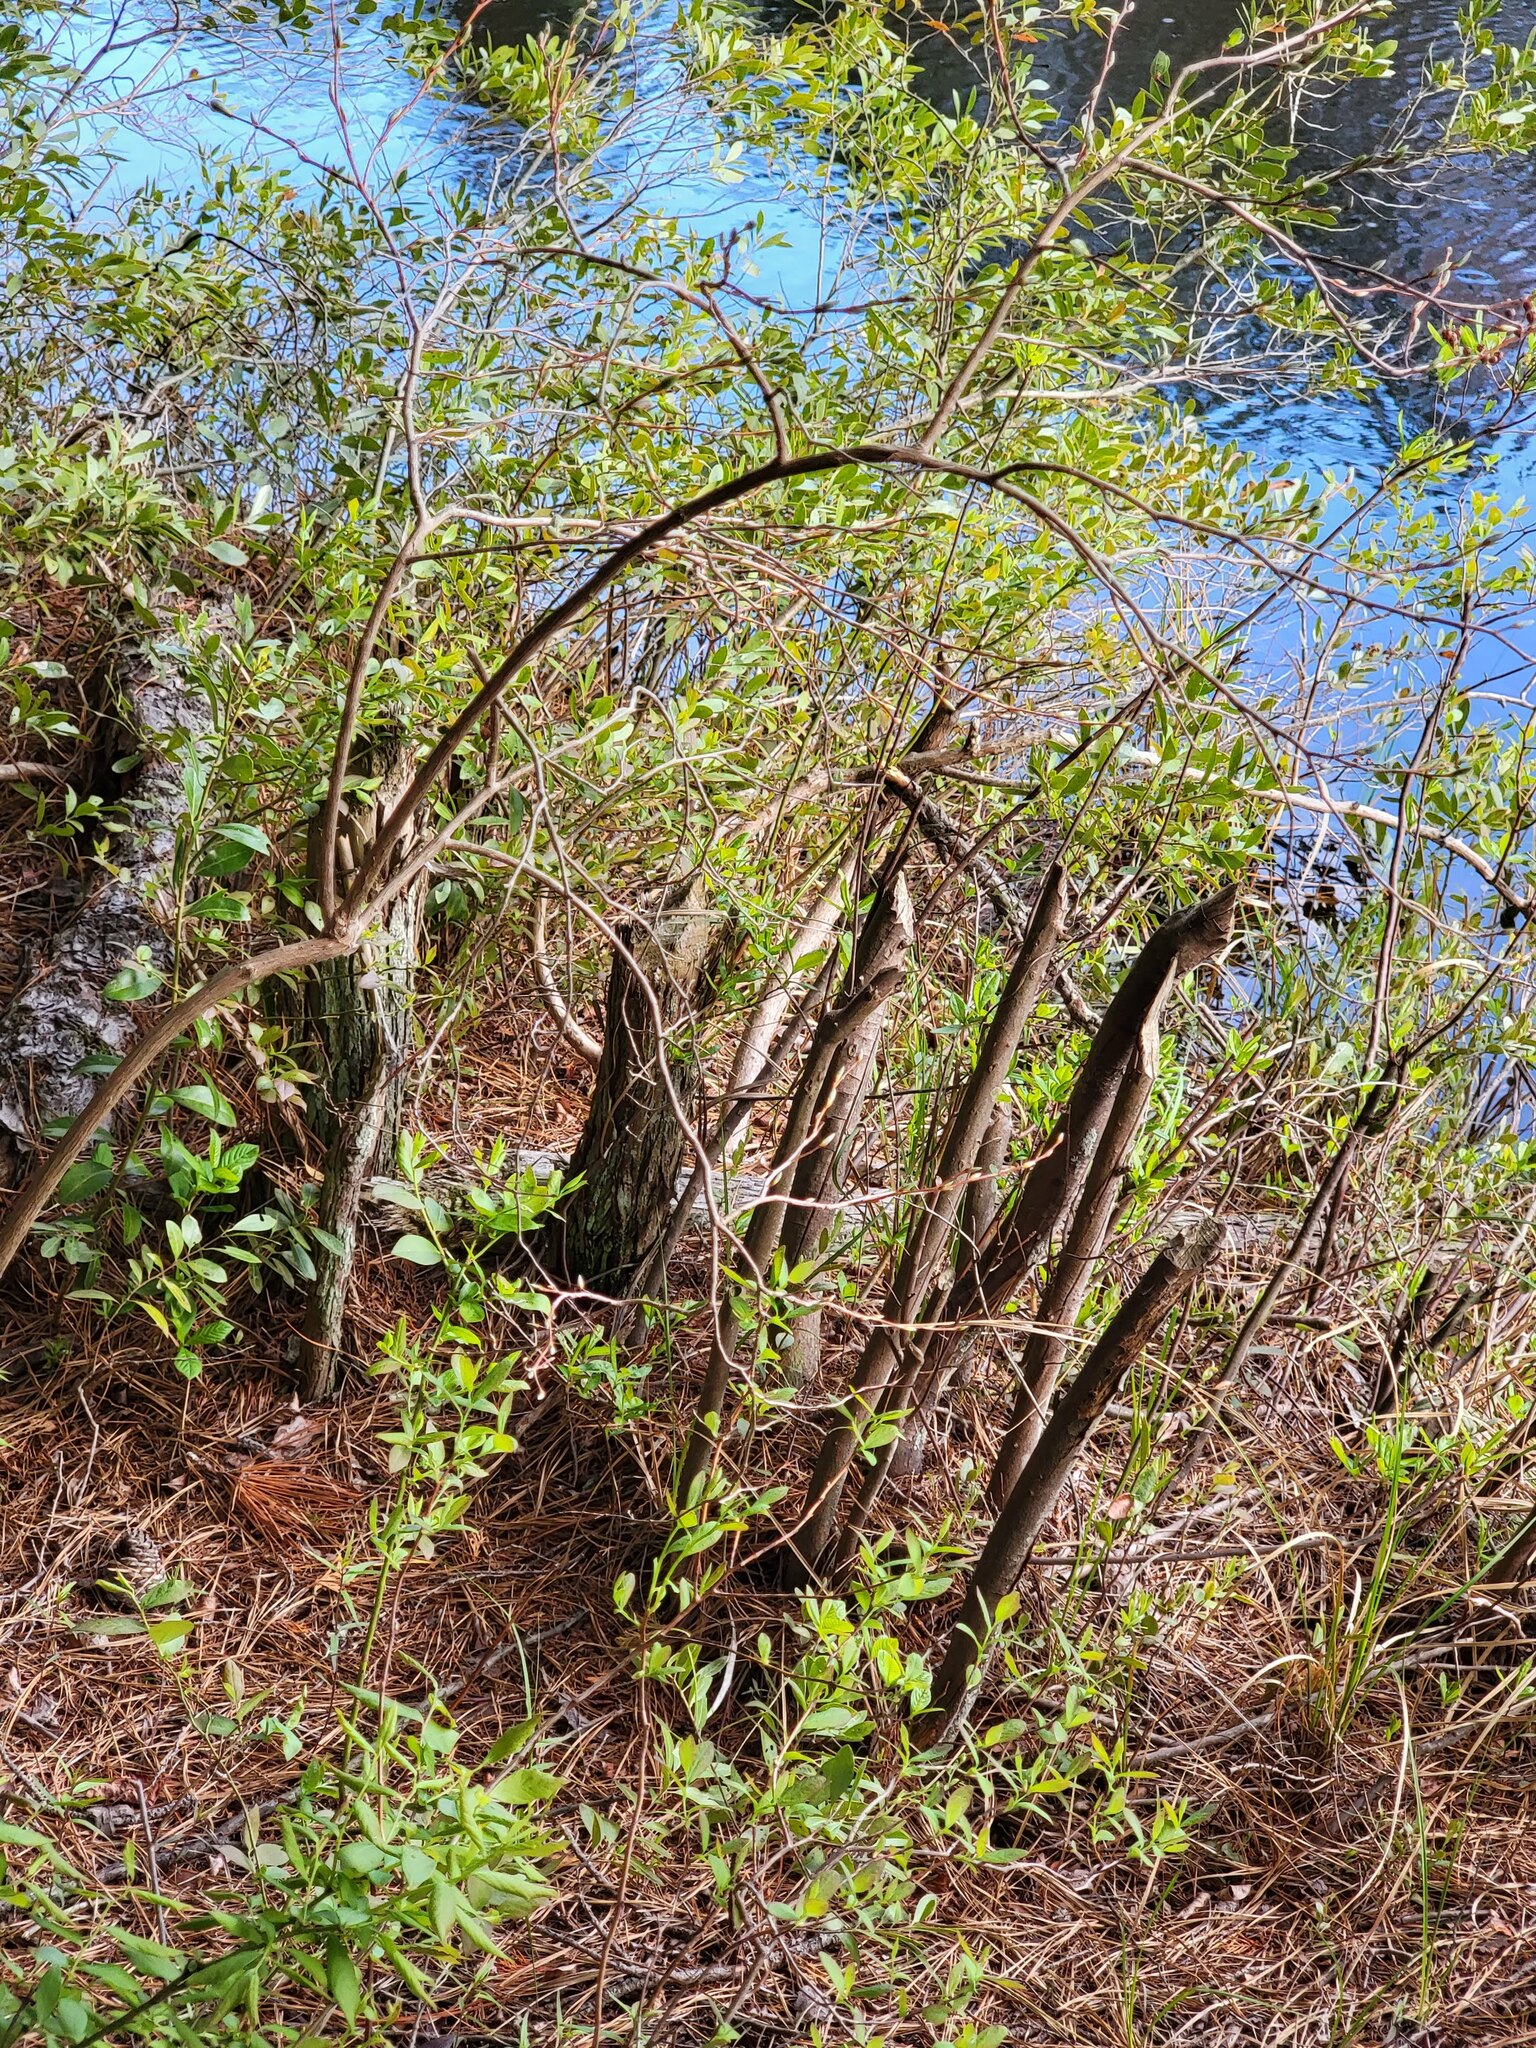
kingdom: Animalia
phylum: Chordata
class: Mammalia
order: Rodentia
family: Castoridae
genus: Castor
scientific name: Castor canadensis
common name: American beaver
